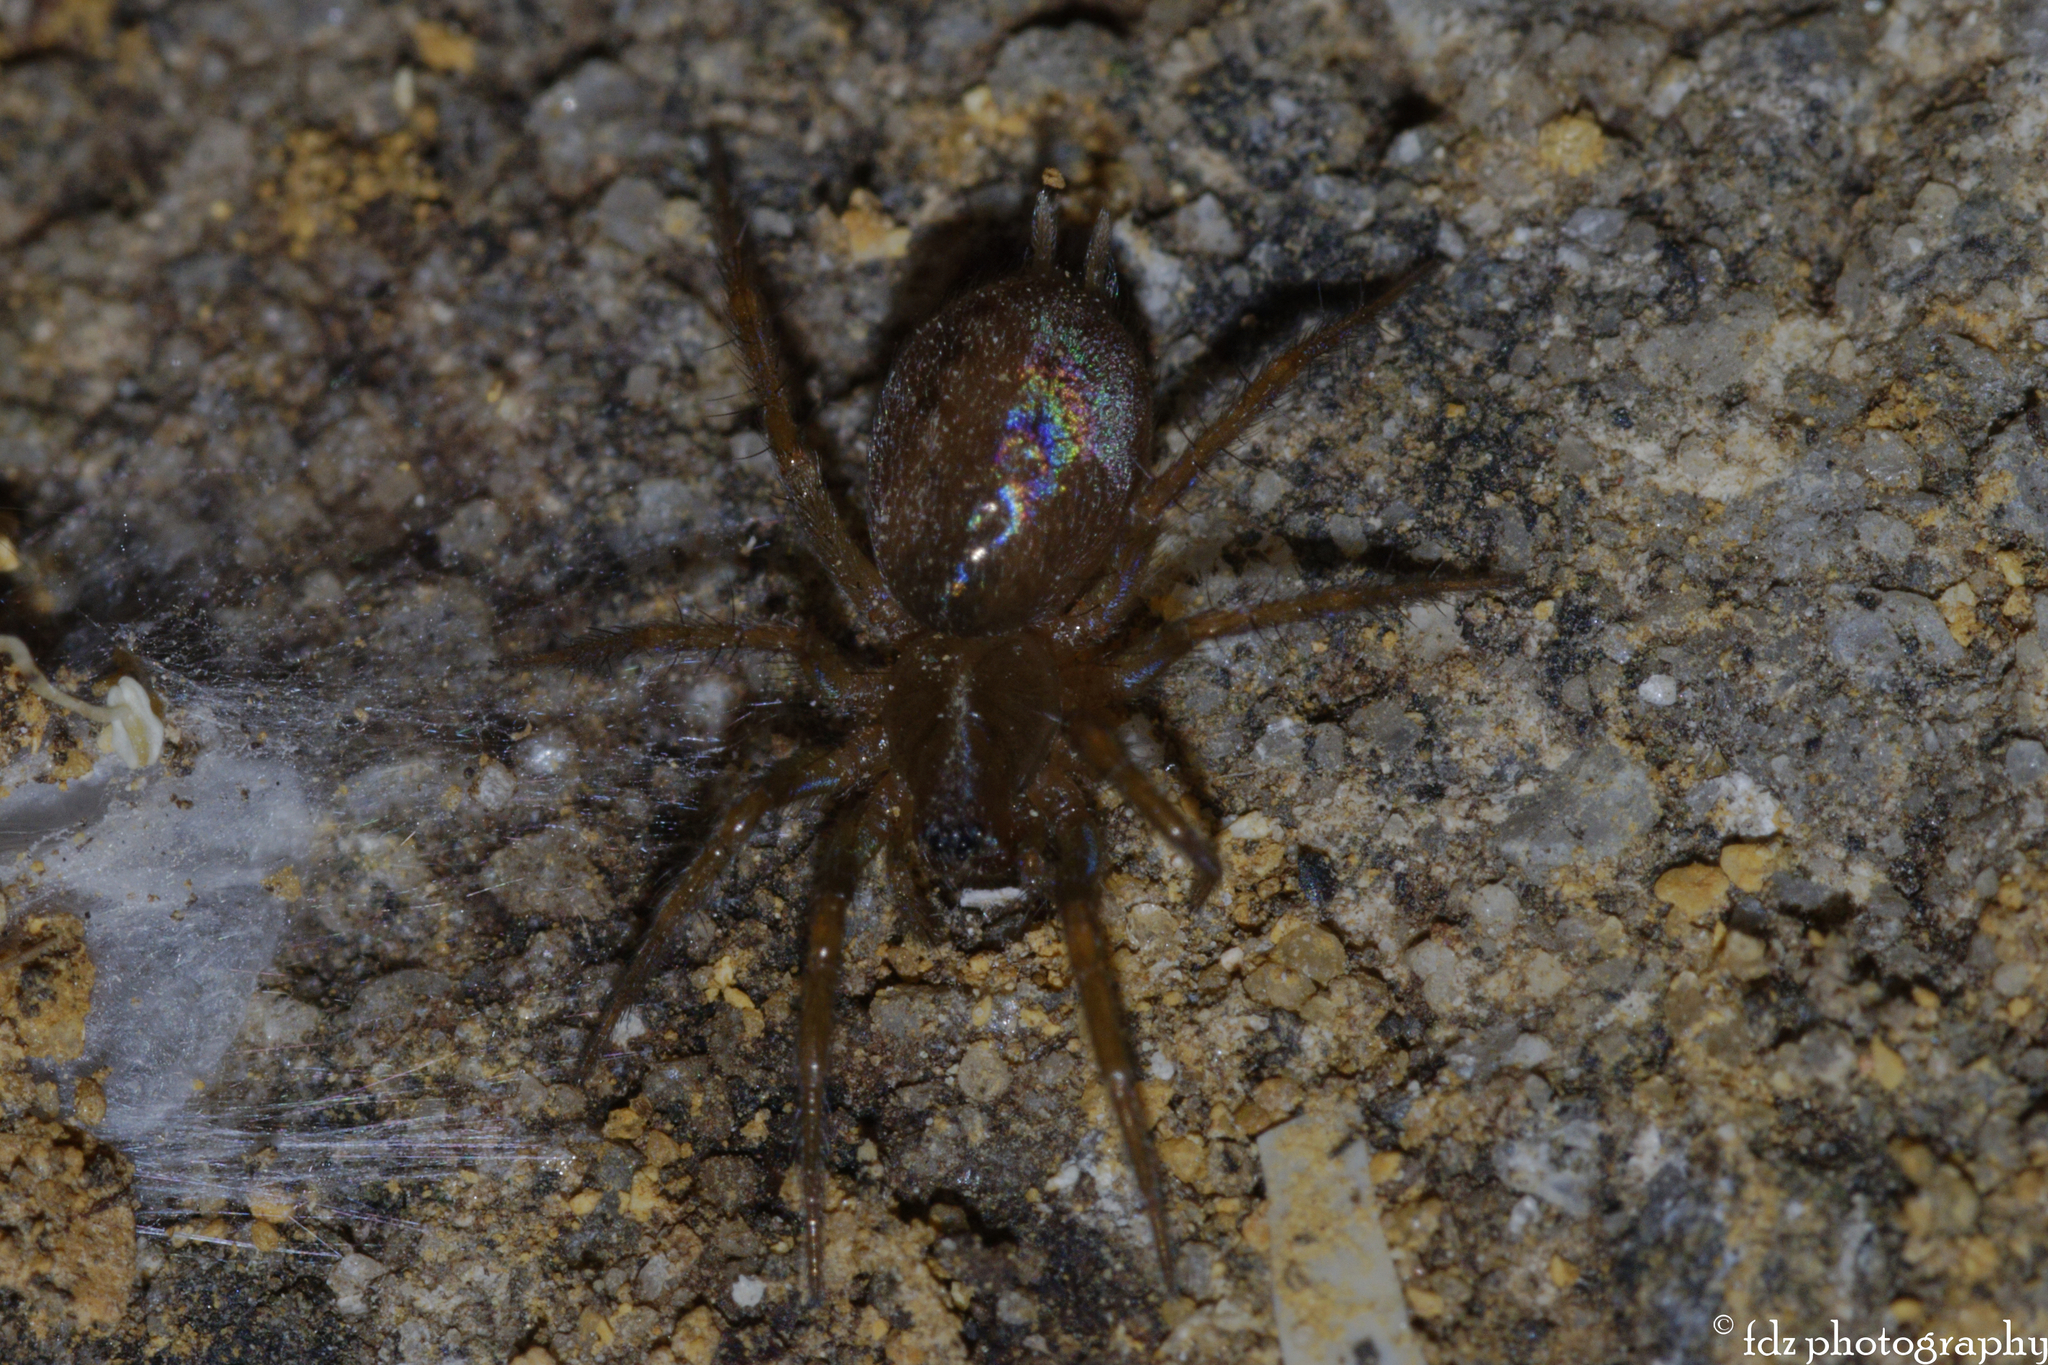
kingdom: Animalia
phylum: Arthropoda
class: Arachnida
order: Araneae
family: Agelenidae
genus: Lycosoides
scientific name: Lycosoides coarctata
